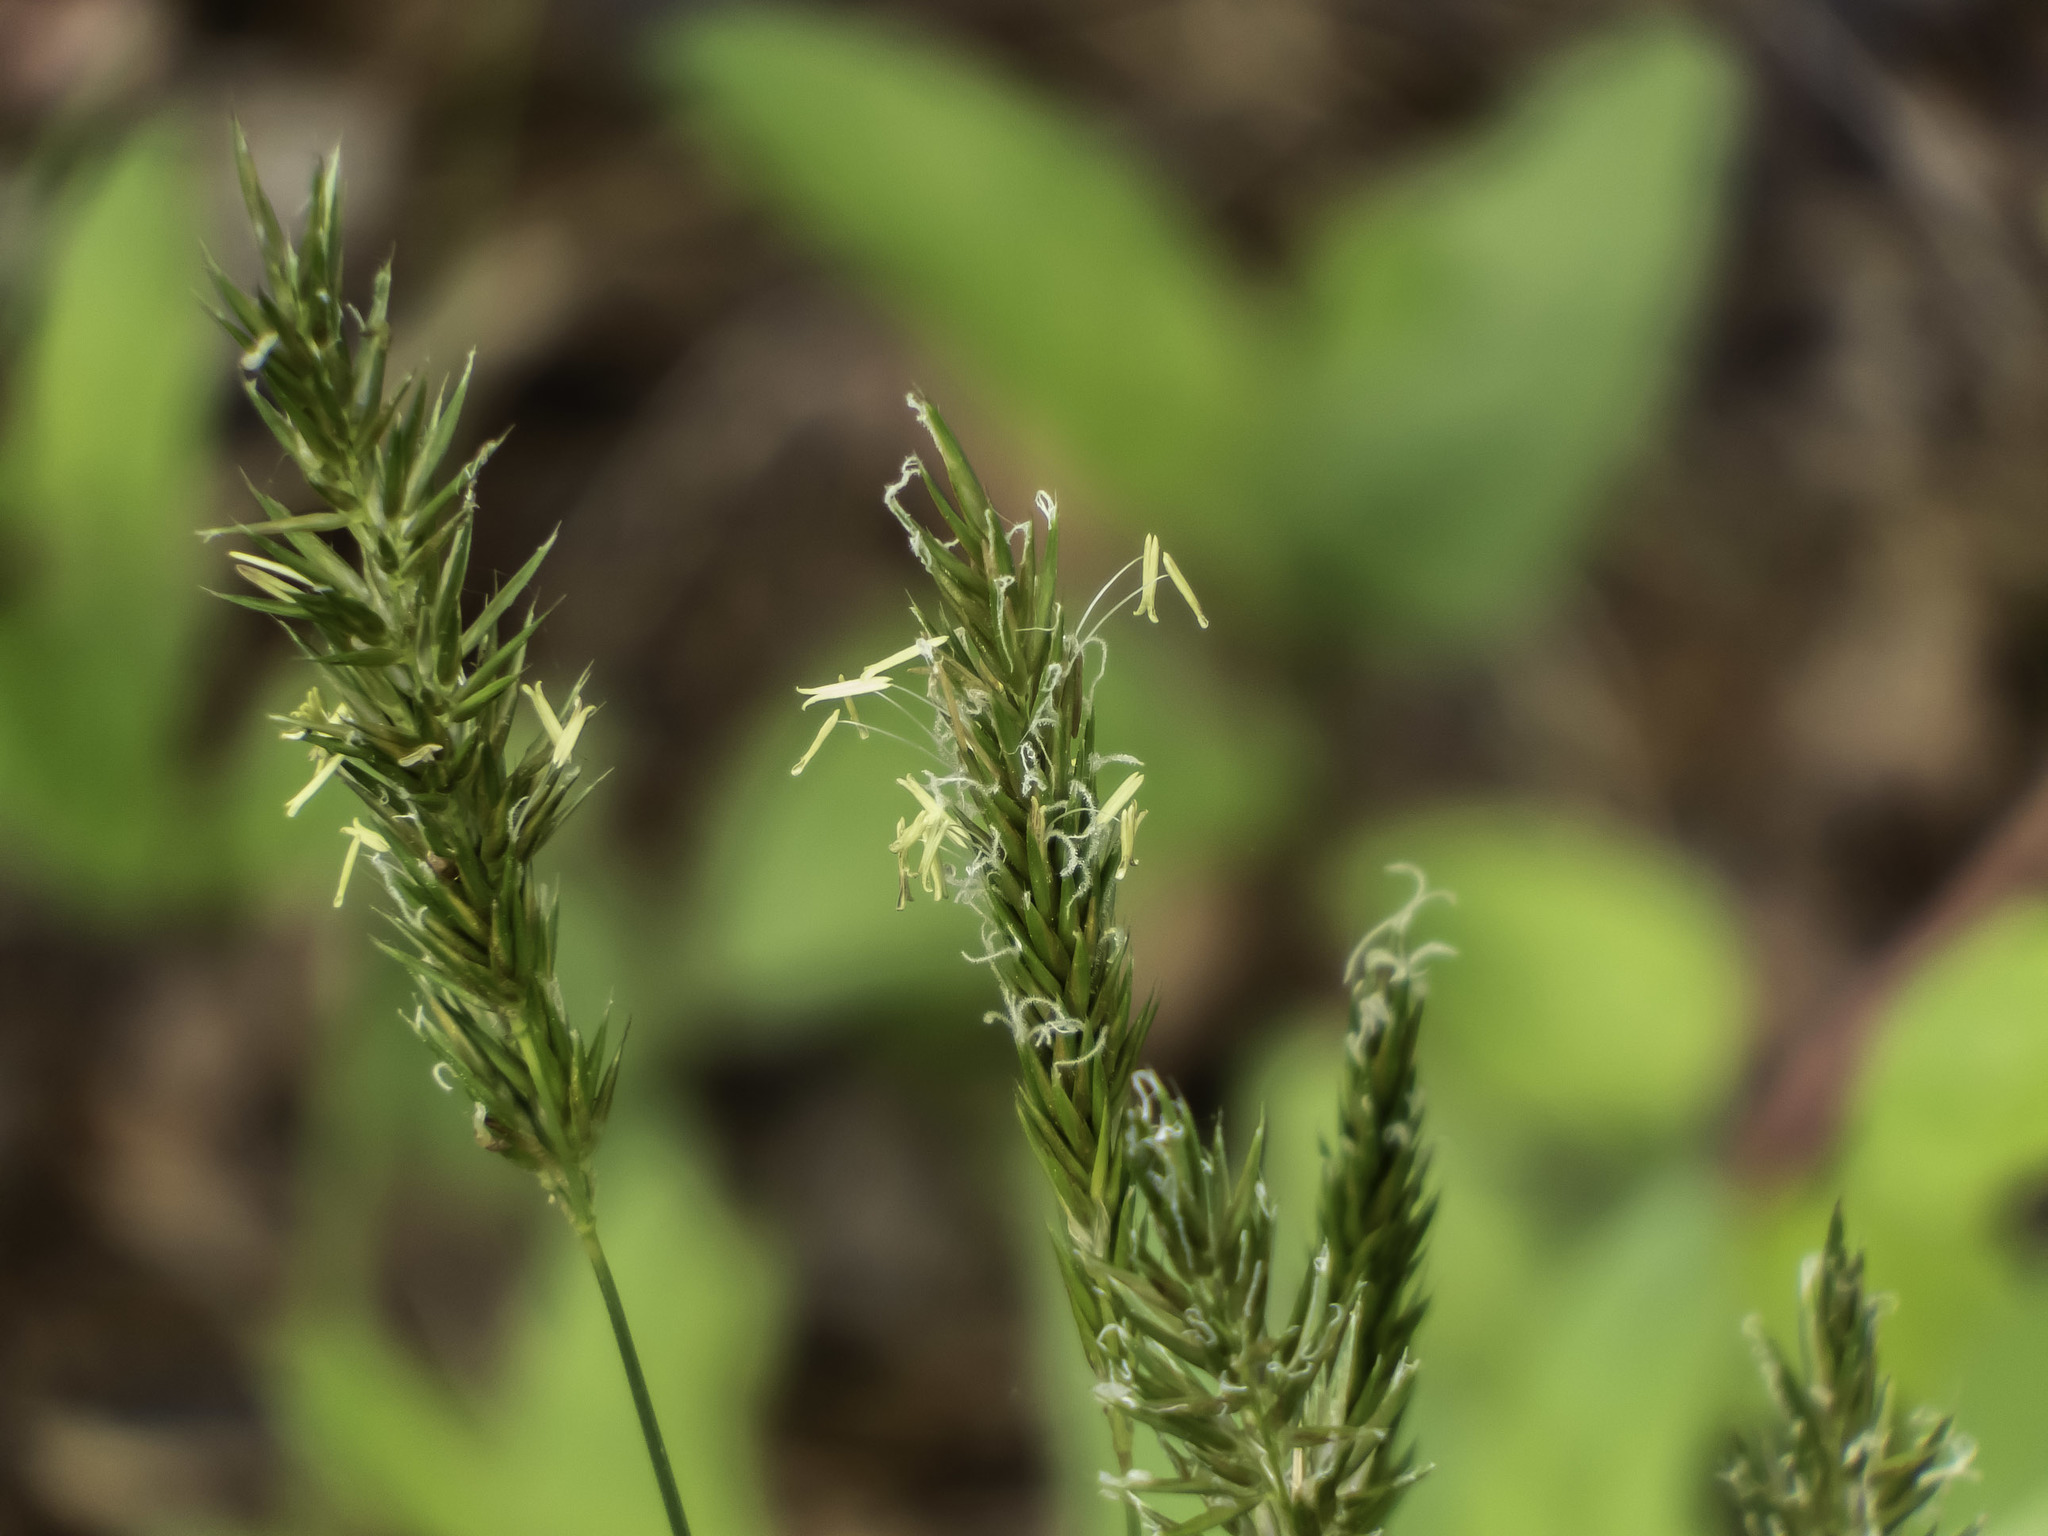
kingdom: Plantae
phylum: Tracheophyta
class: Liliopsida
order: Poales
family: Poaceae
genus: Anthoxanthum
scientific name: Anthoxanthum odoratum
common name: Sweet vernalgrass
